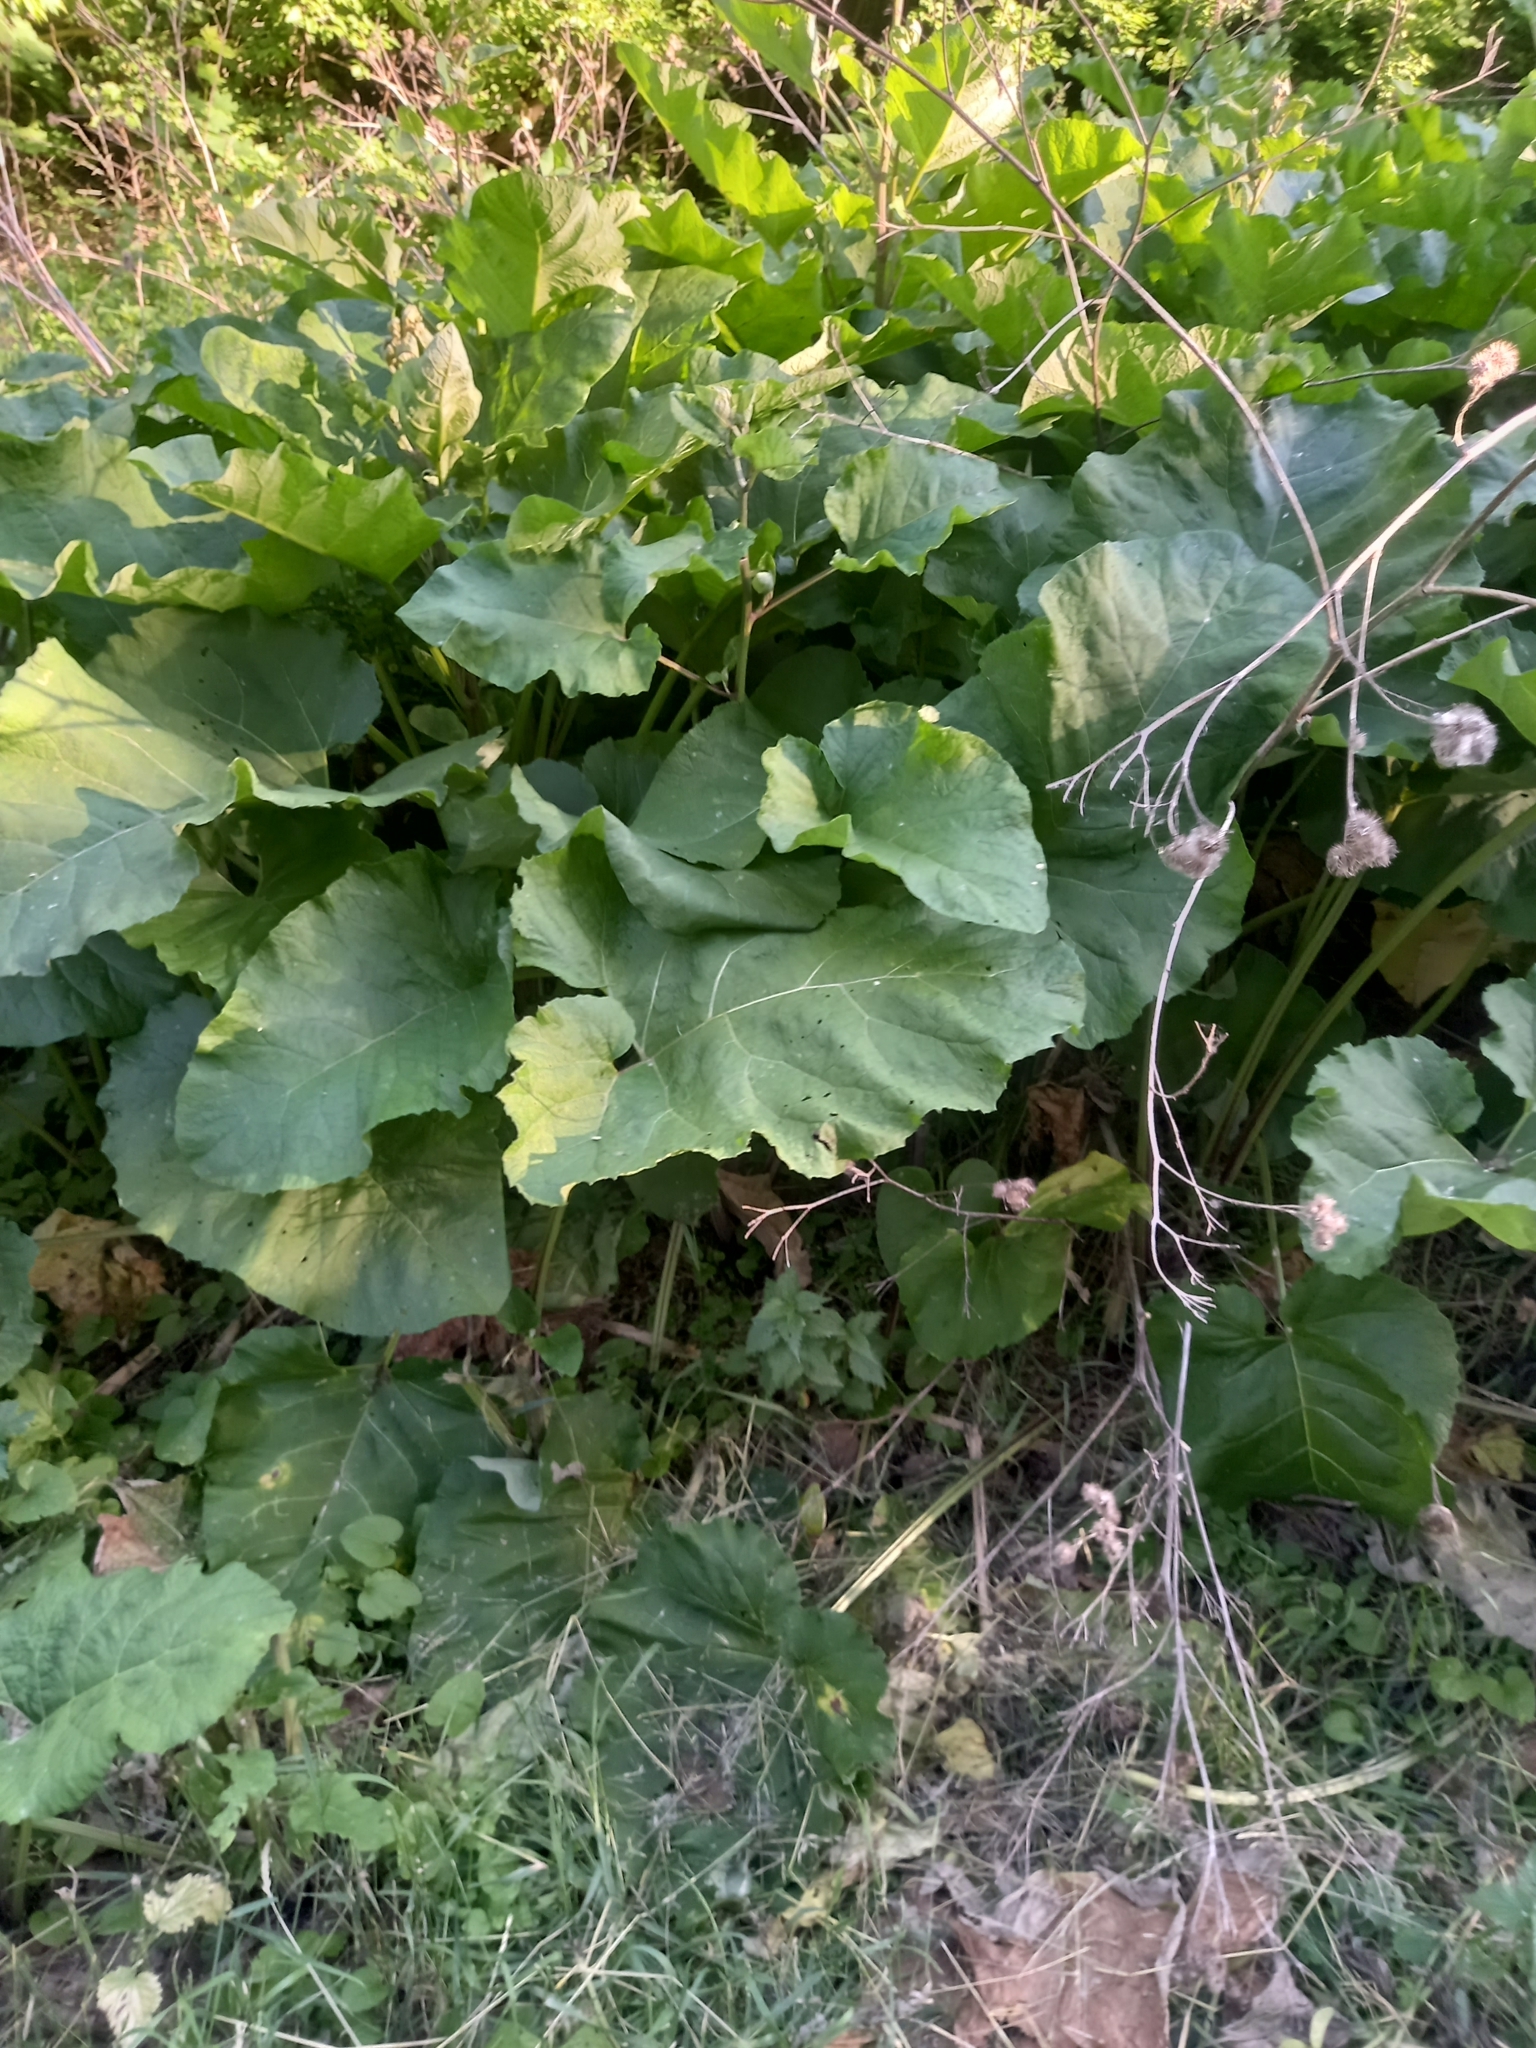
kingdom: Plantae
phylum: Tracheophyta
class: Magnoliopsida
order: Asterales
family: Asteraceae
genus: Arctium
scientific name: Arctium
